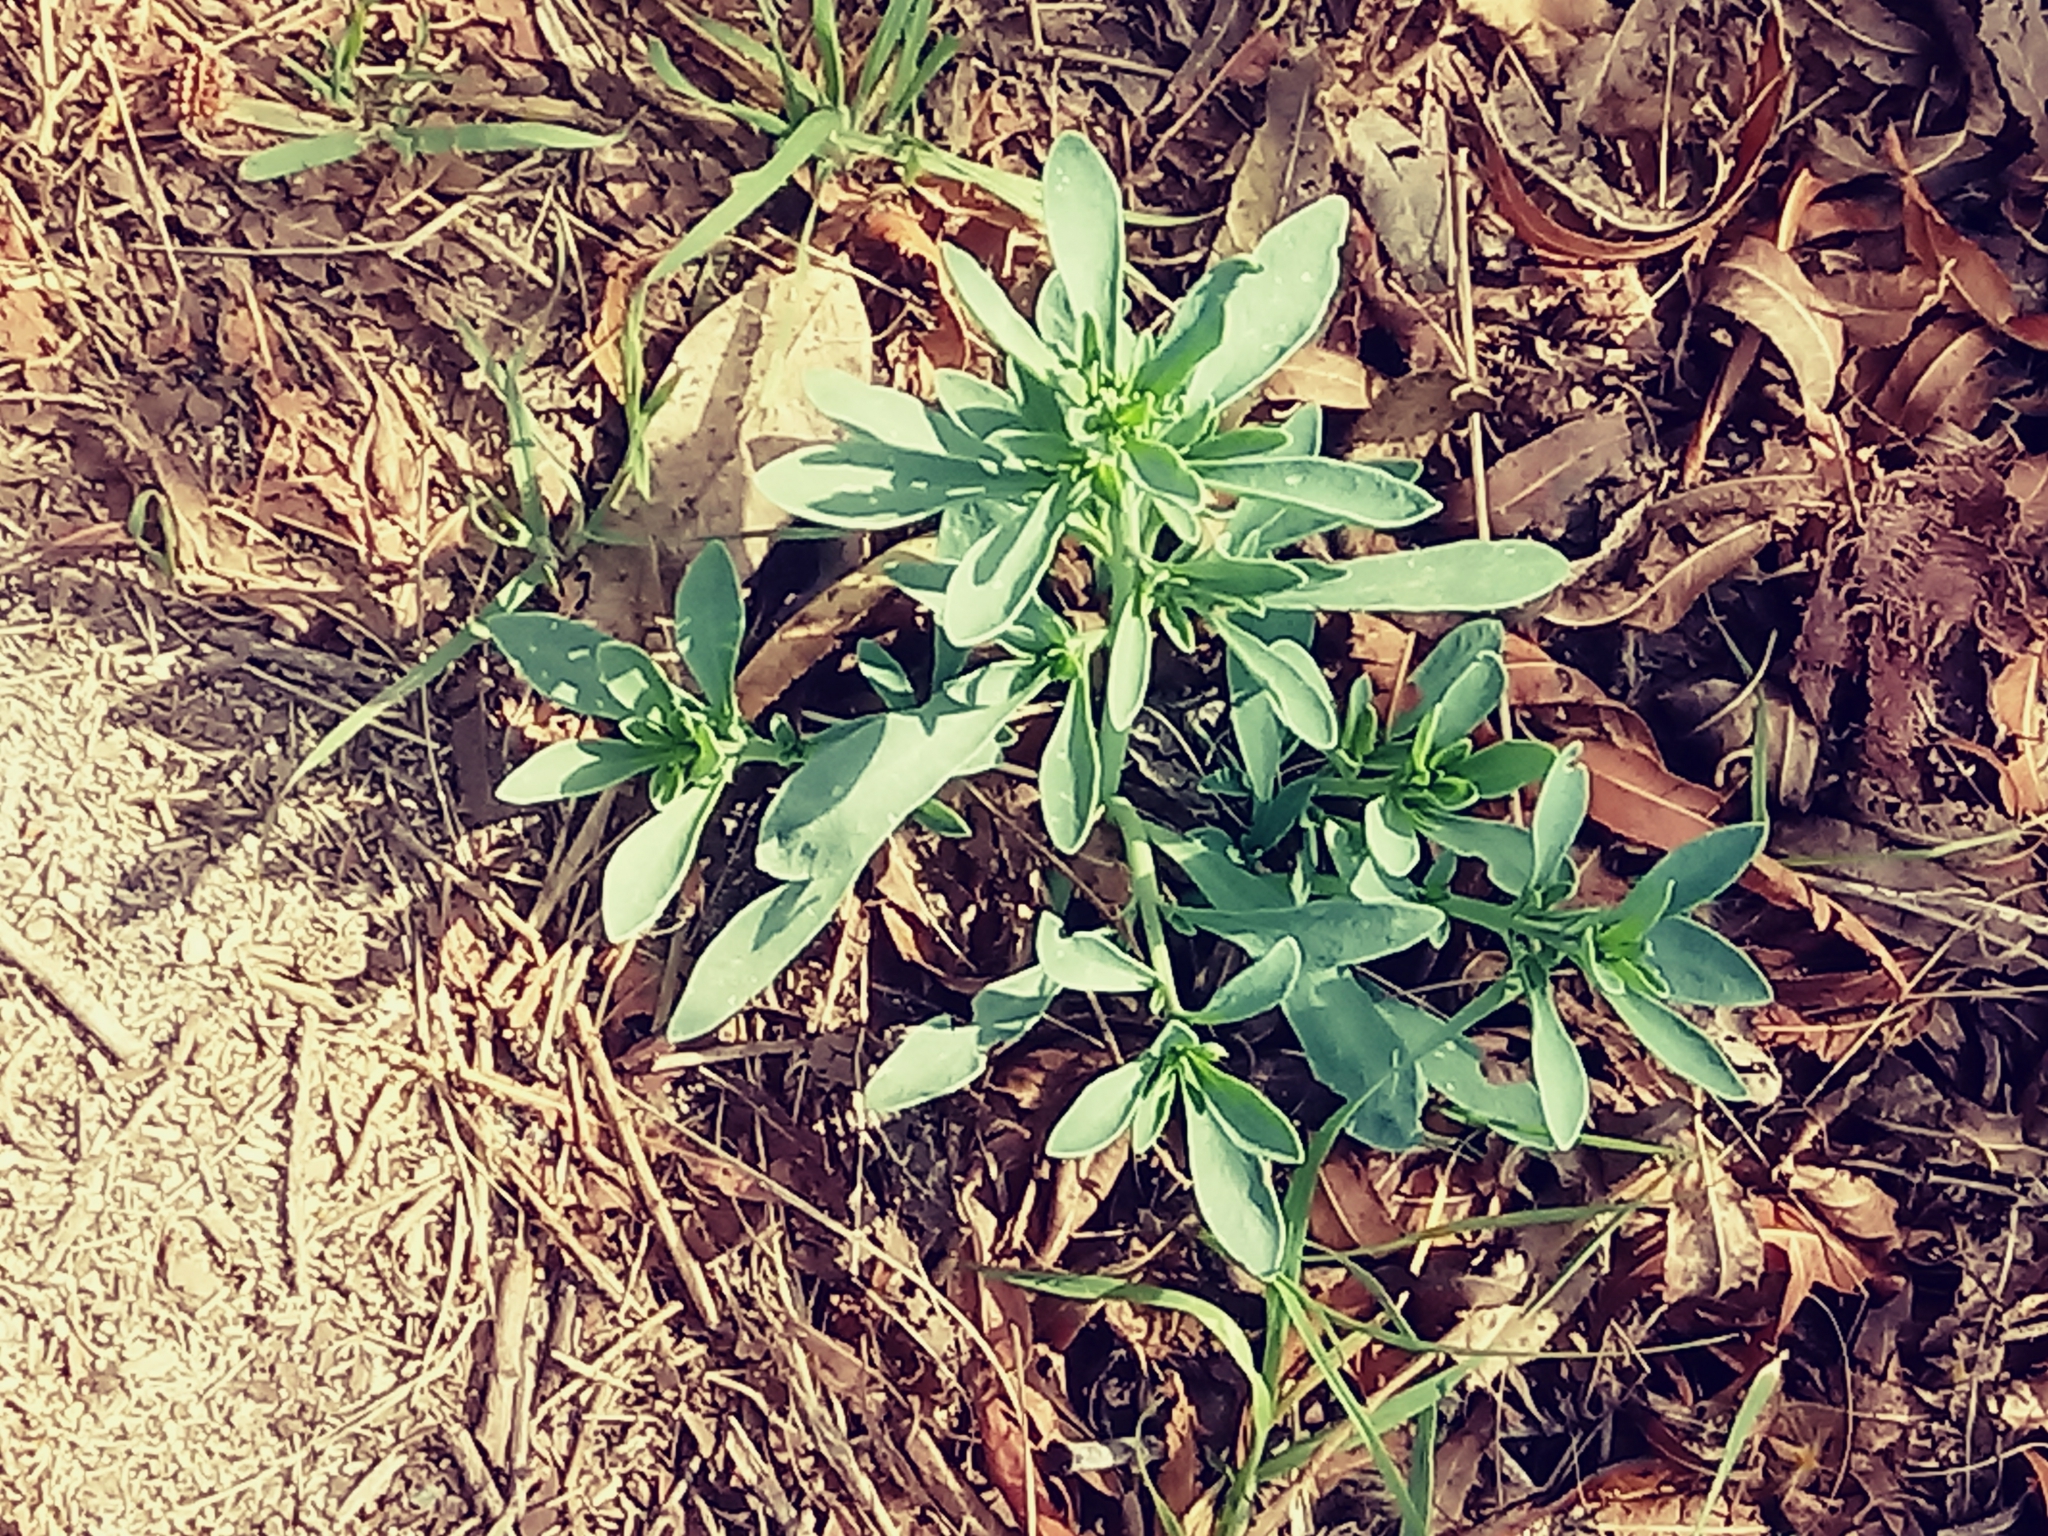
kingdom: Plantae
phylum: Tracheophyta
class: Magnoliopsida
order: Boraginales
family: Heliotropiaceae
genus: Heliotropium
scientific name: Heliotropium curassavicum
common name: Seaside heliotrope
